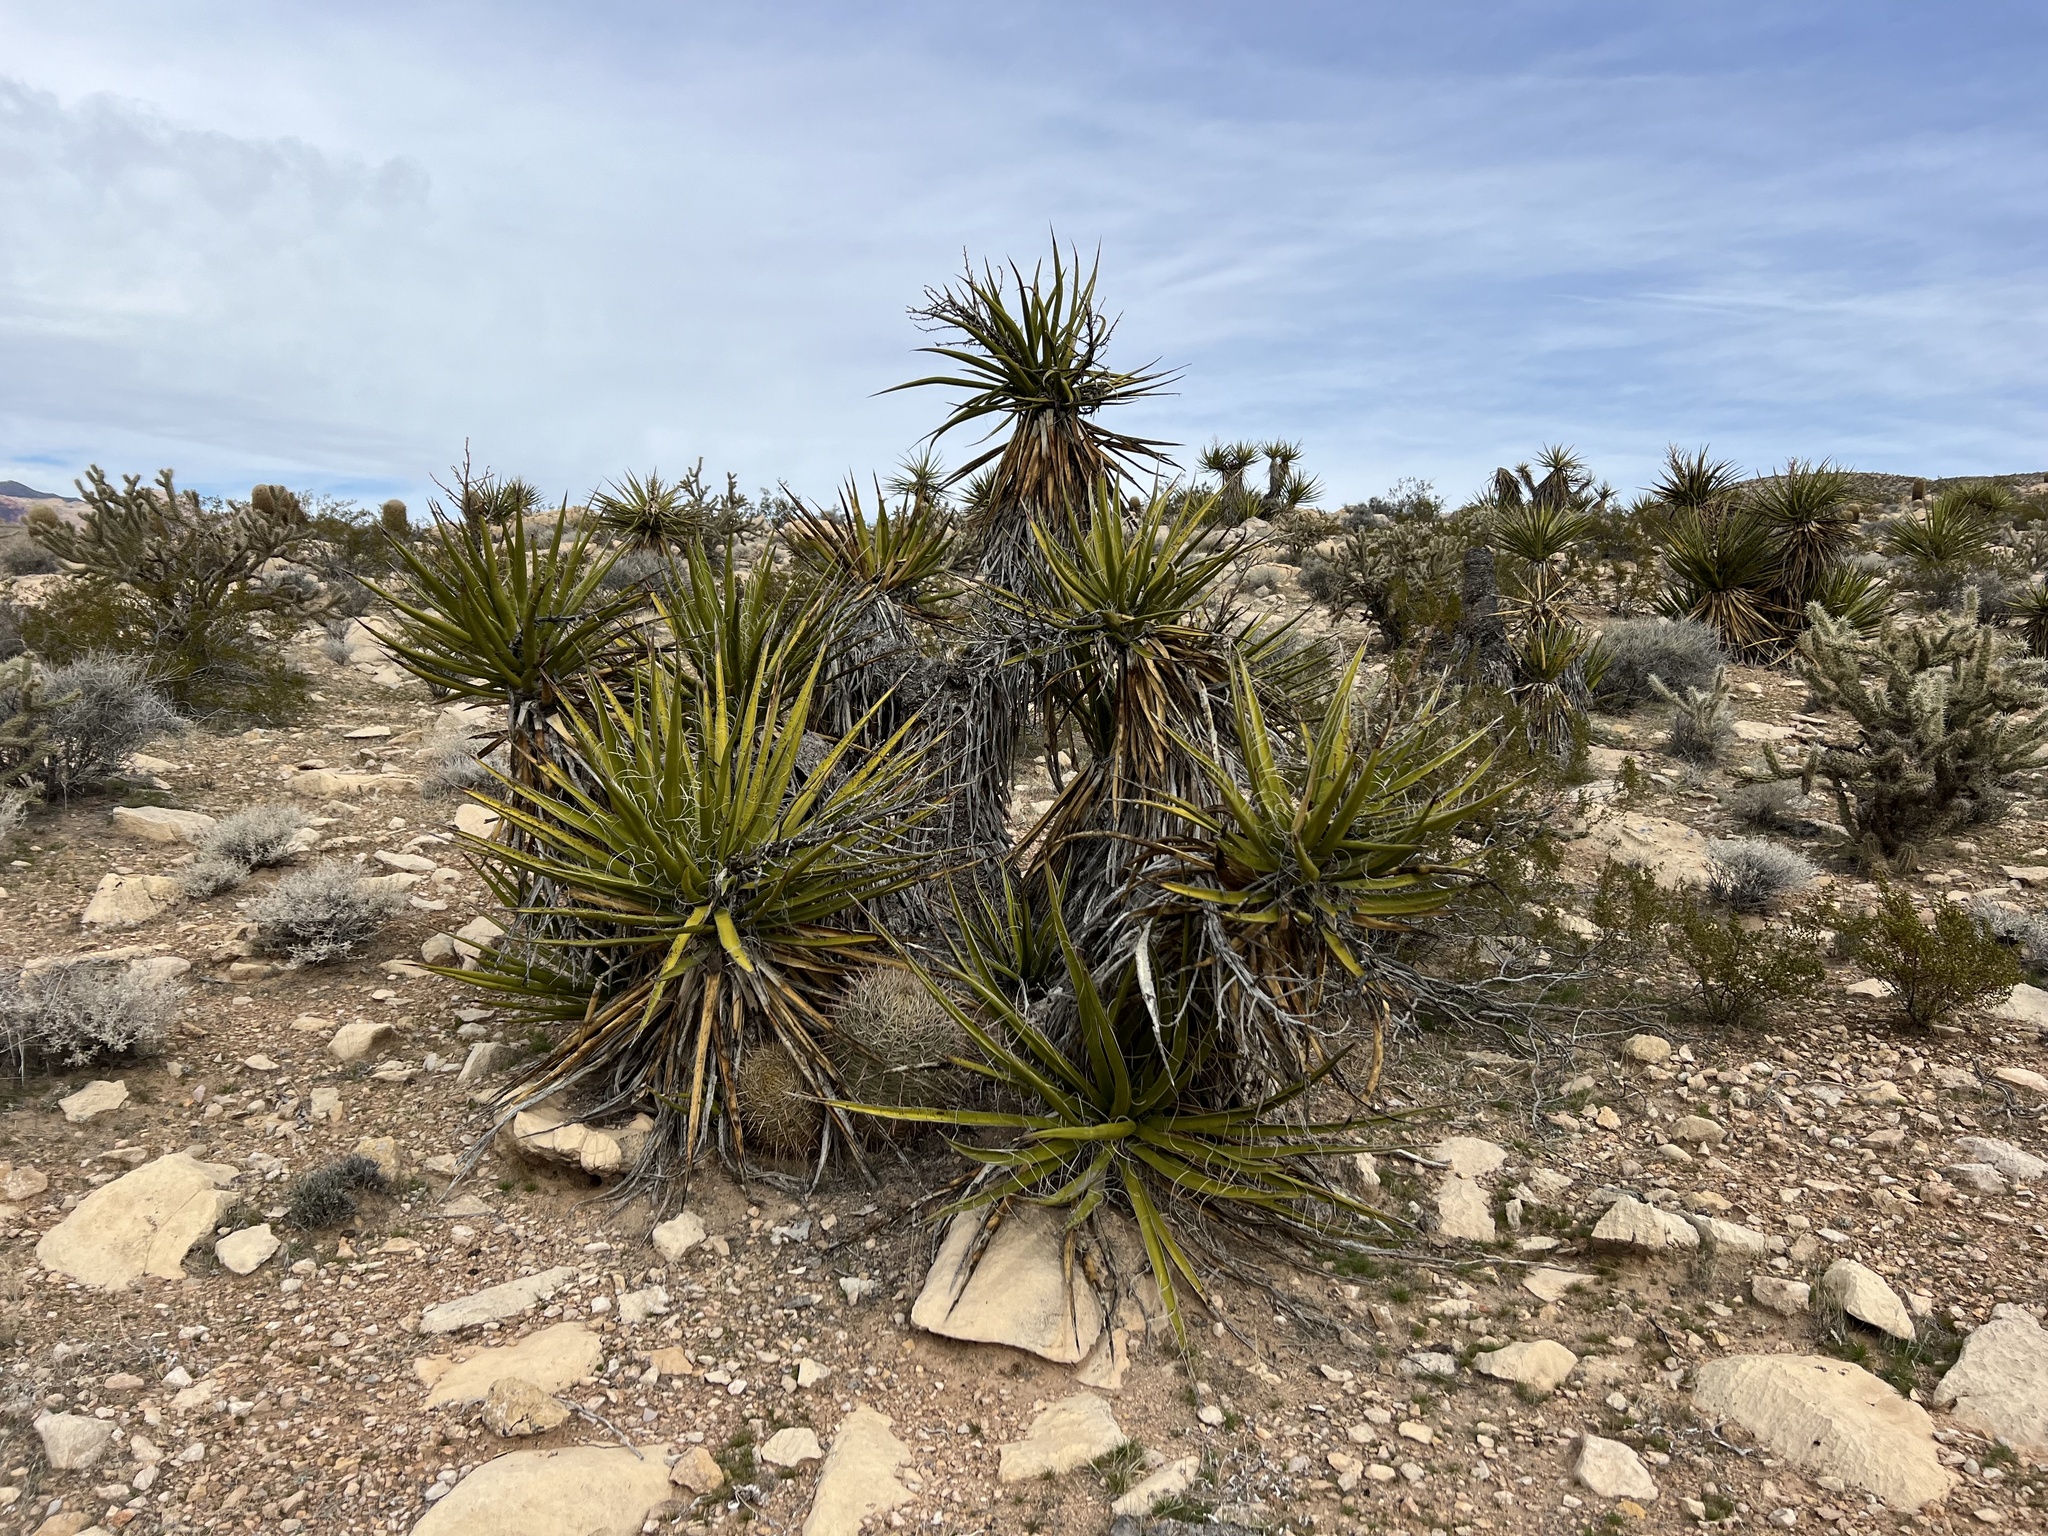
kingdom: Plantae
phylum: Tracheophyta
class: Liliopsida
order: Asparagales
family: Asparagaceae
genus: Yucca
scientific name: Yucca schidigera
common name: Mojave yucca
